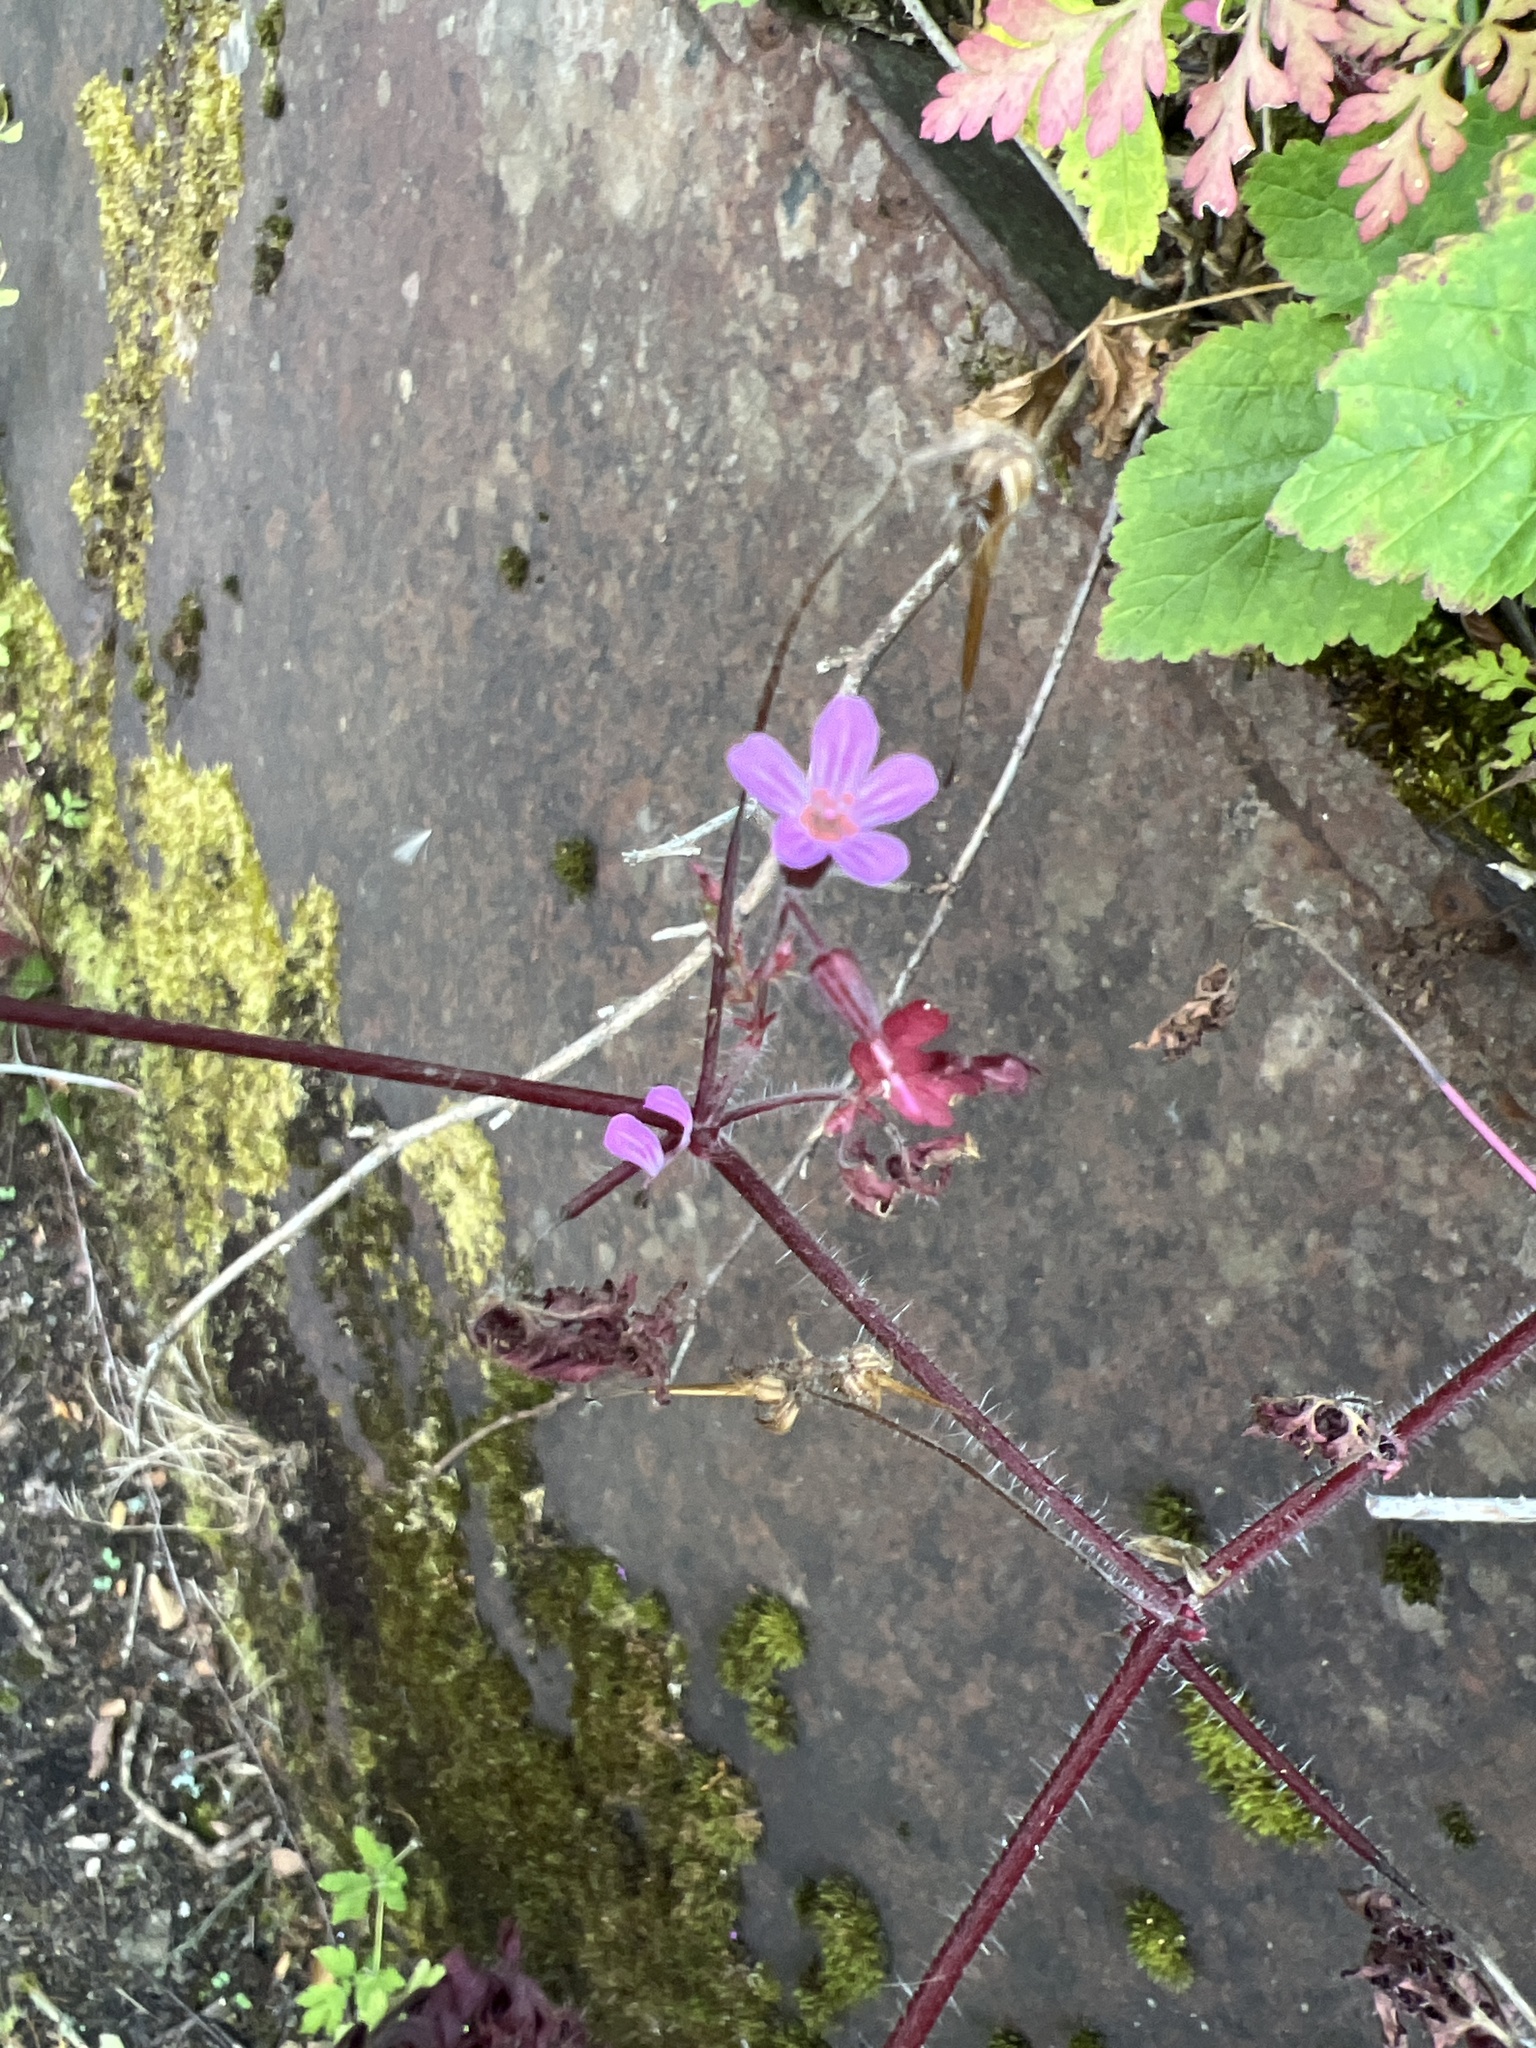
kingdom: Plantae
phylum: Tracheophyta
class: Magnoliopsida
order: Geraniales
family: Geraniaceae
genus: Geranium
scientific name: Geranium robertianum
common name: Herb-robert
